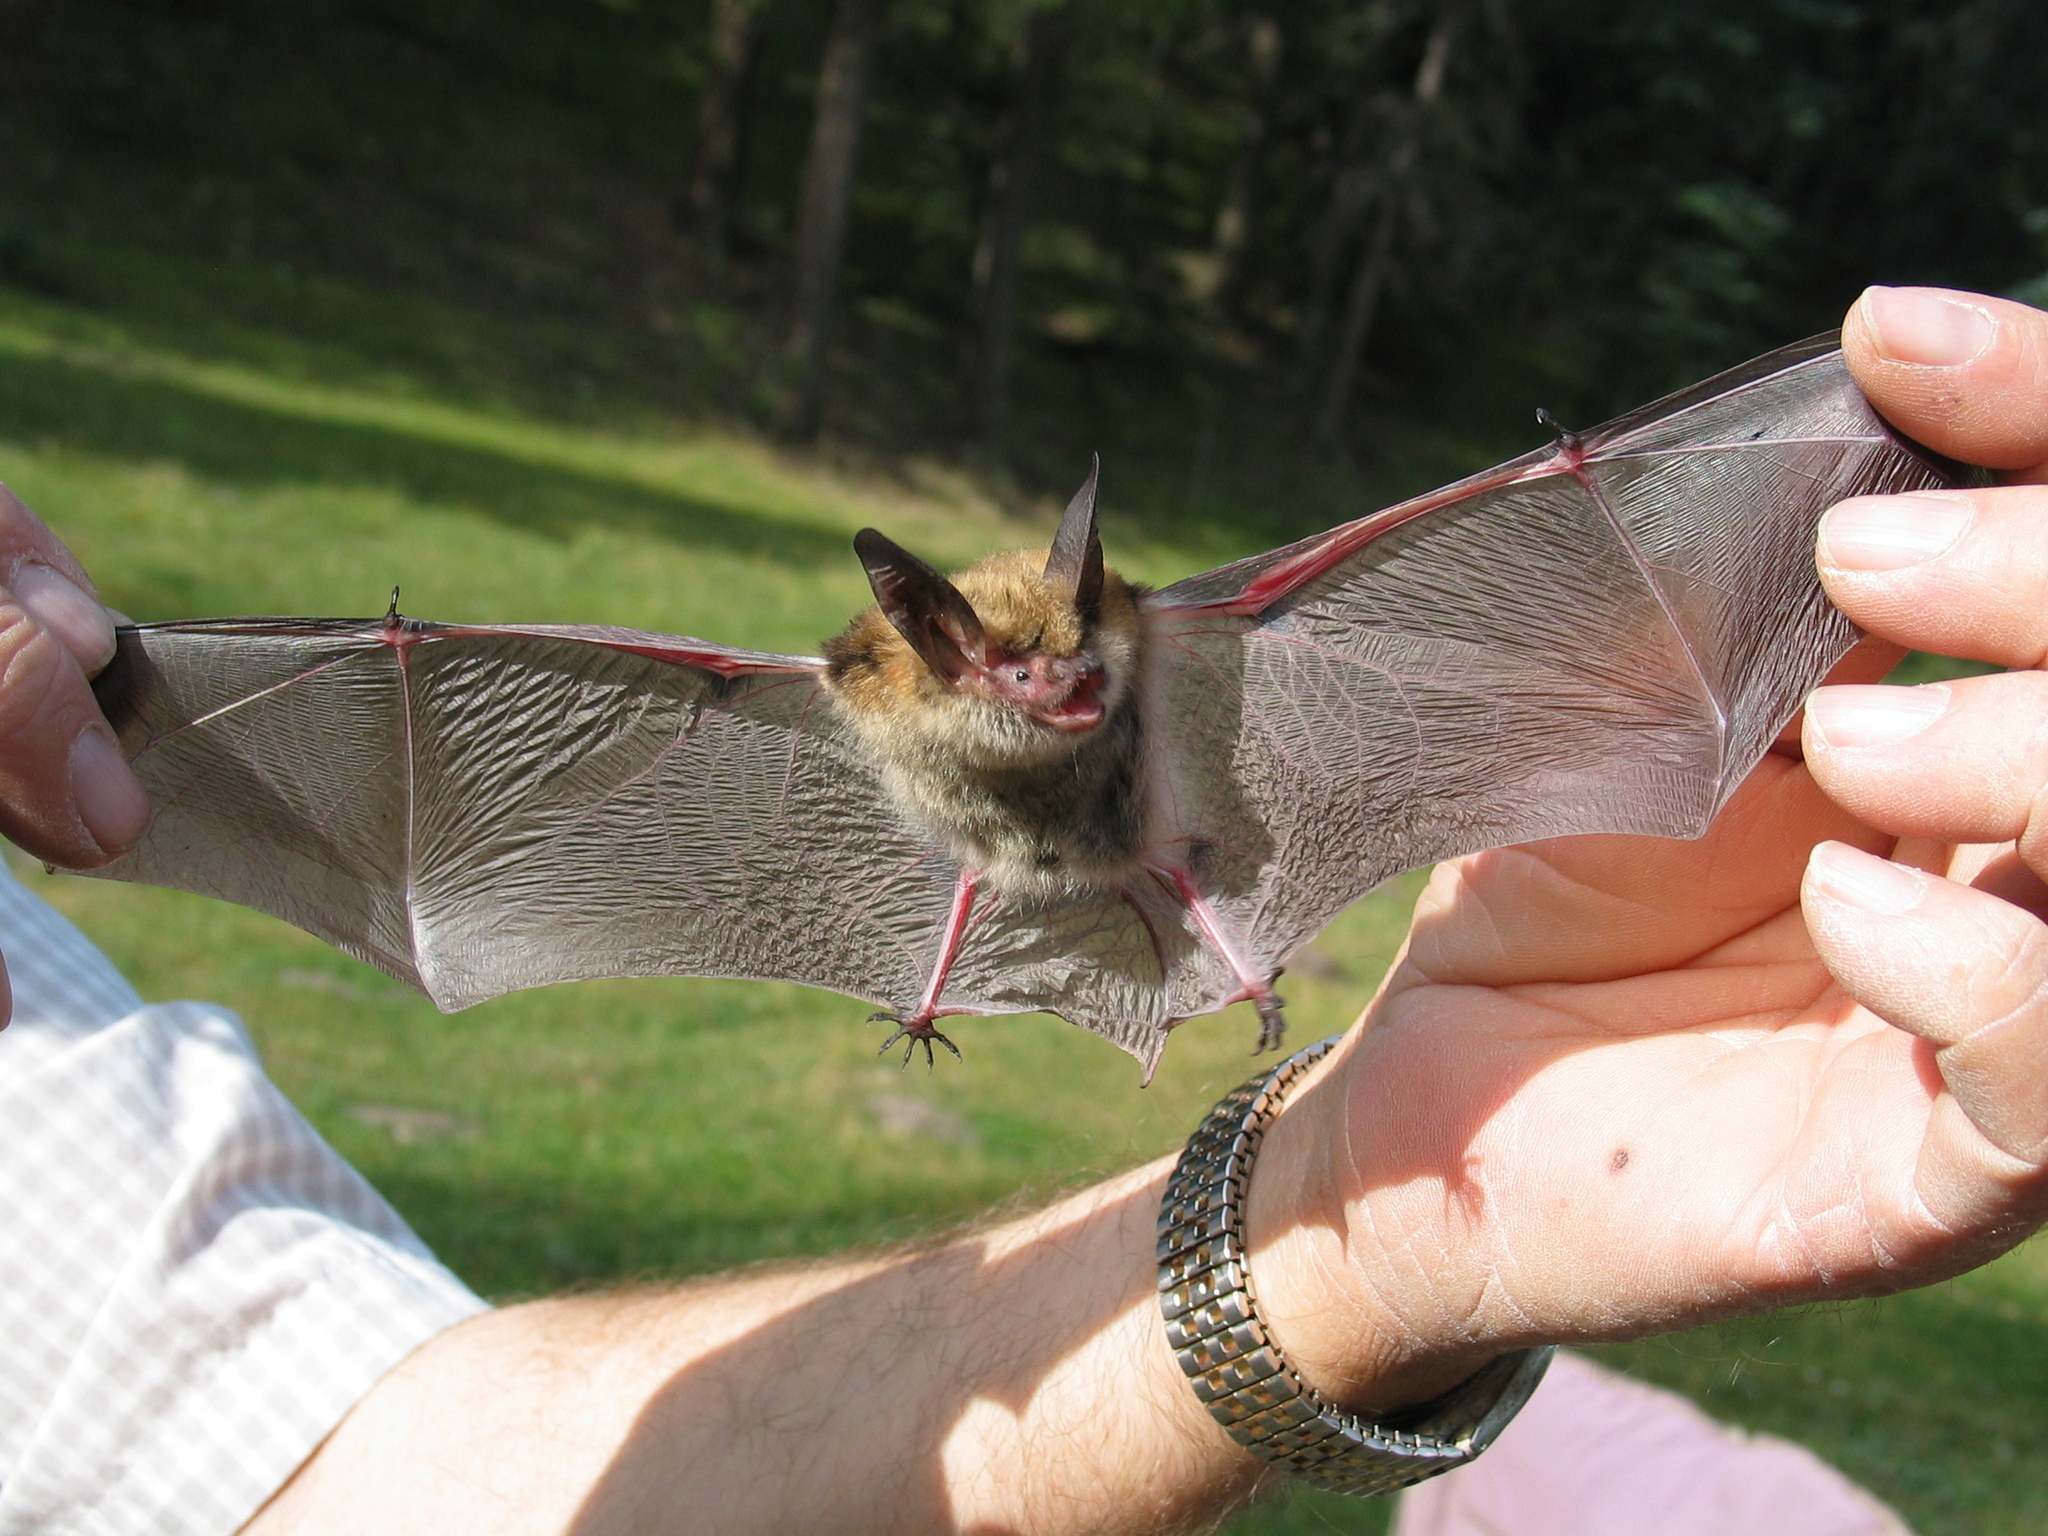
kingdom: Animalia
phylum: Chordata
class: Mammalia
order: Chiroptera
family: Vespertilionidae
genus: Myotis
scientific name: Myotis auriculus
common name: Southwestern myotis
